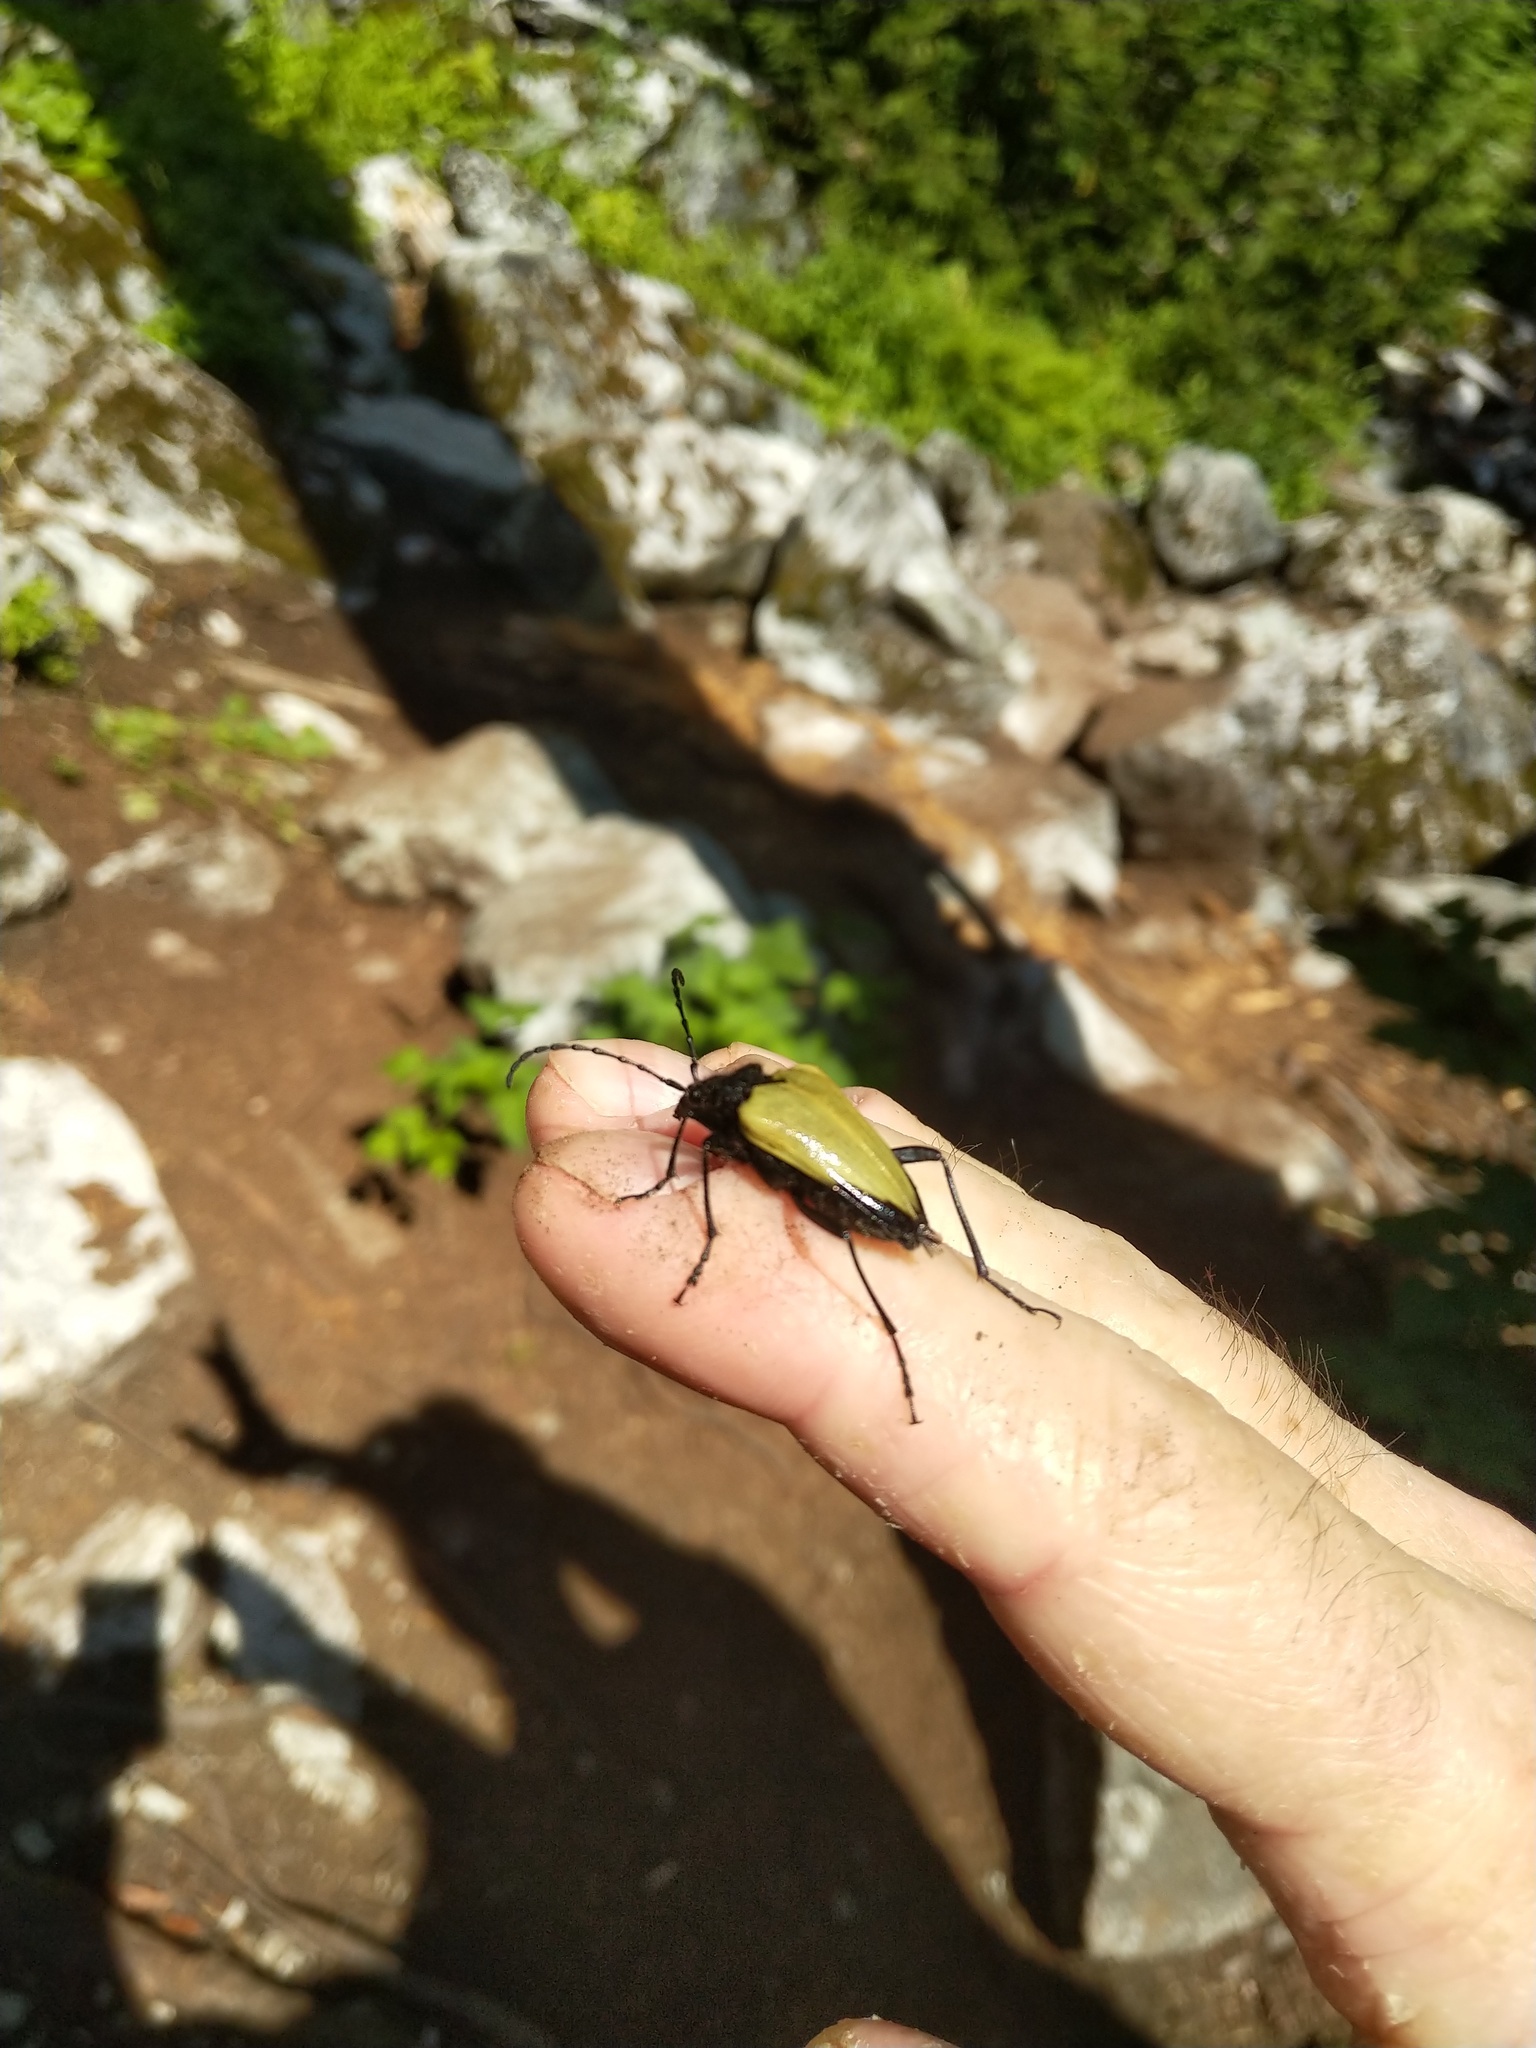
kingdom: Animalia
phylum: Arthropoda
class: Insecta
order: Coleoptera
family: Cerambycidae
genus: Pachyta
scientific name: Pachyta armata
